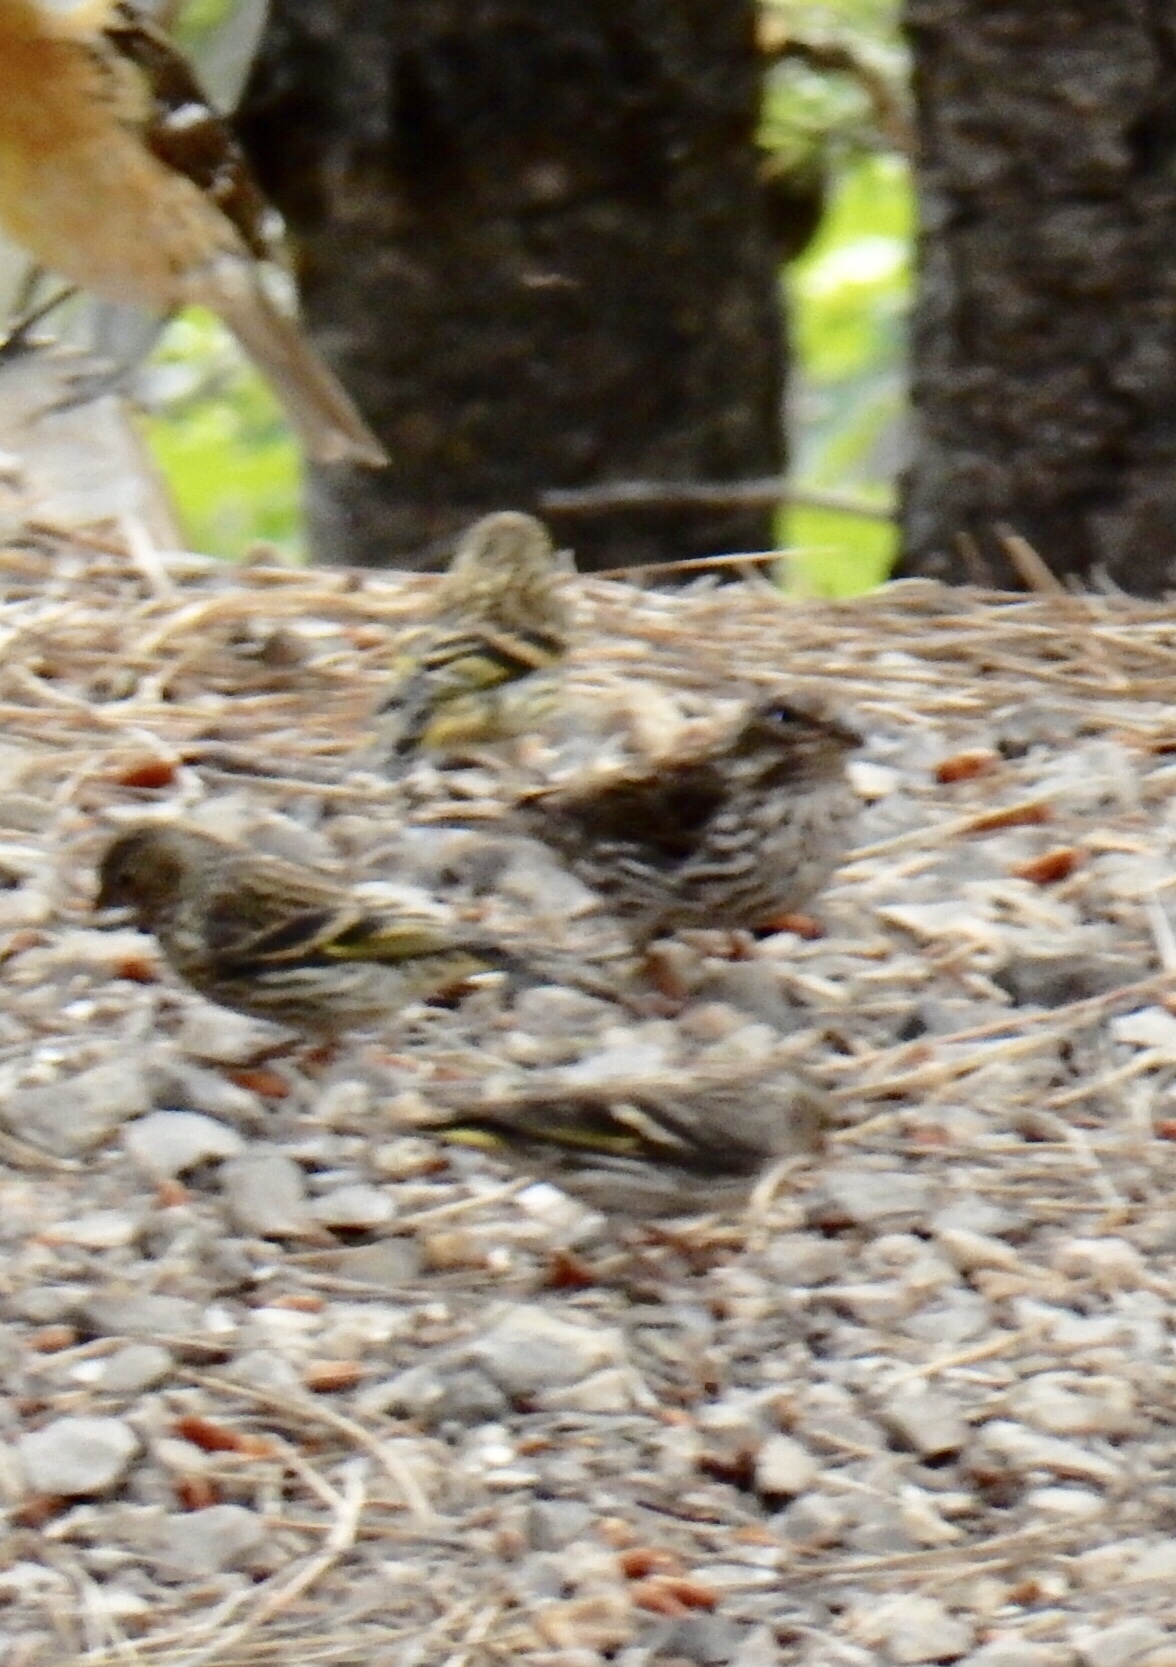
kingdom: Animalia
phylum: Chordata
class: Aves
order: Passeriformes
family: Fringillidae
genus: Spinus
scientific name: Spinus pinus
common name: Pine siskin
